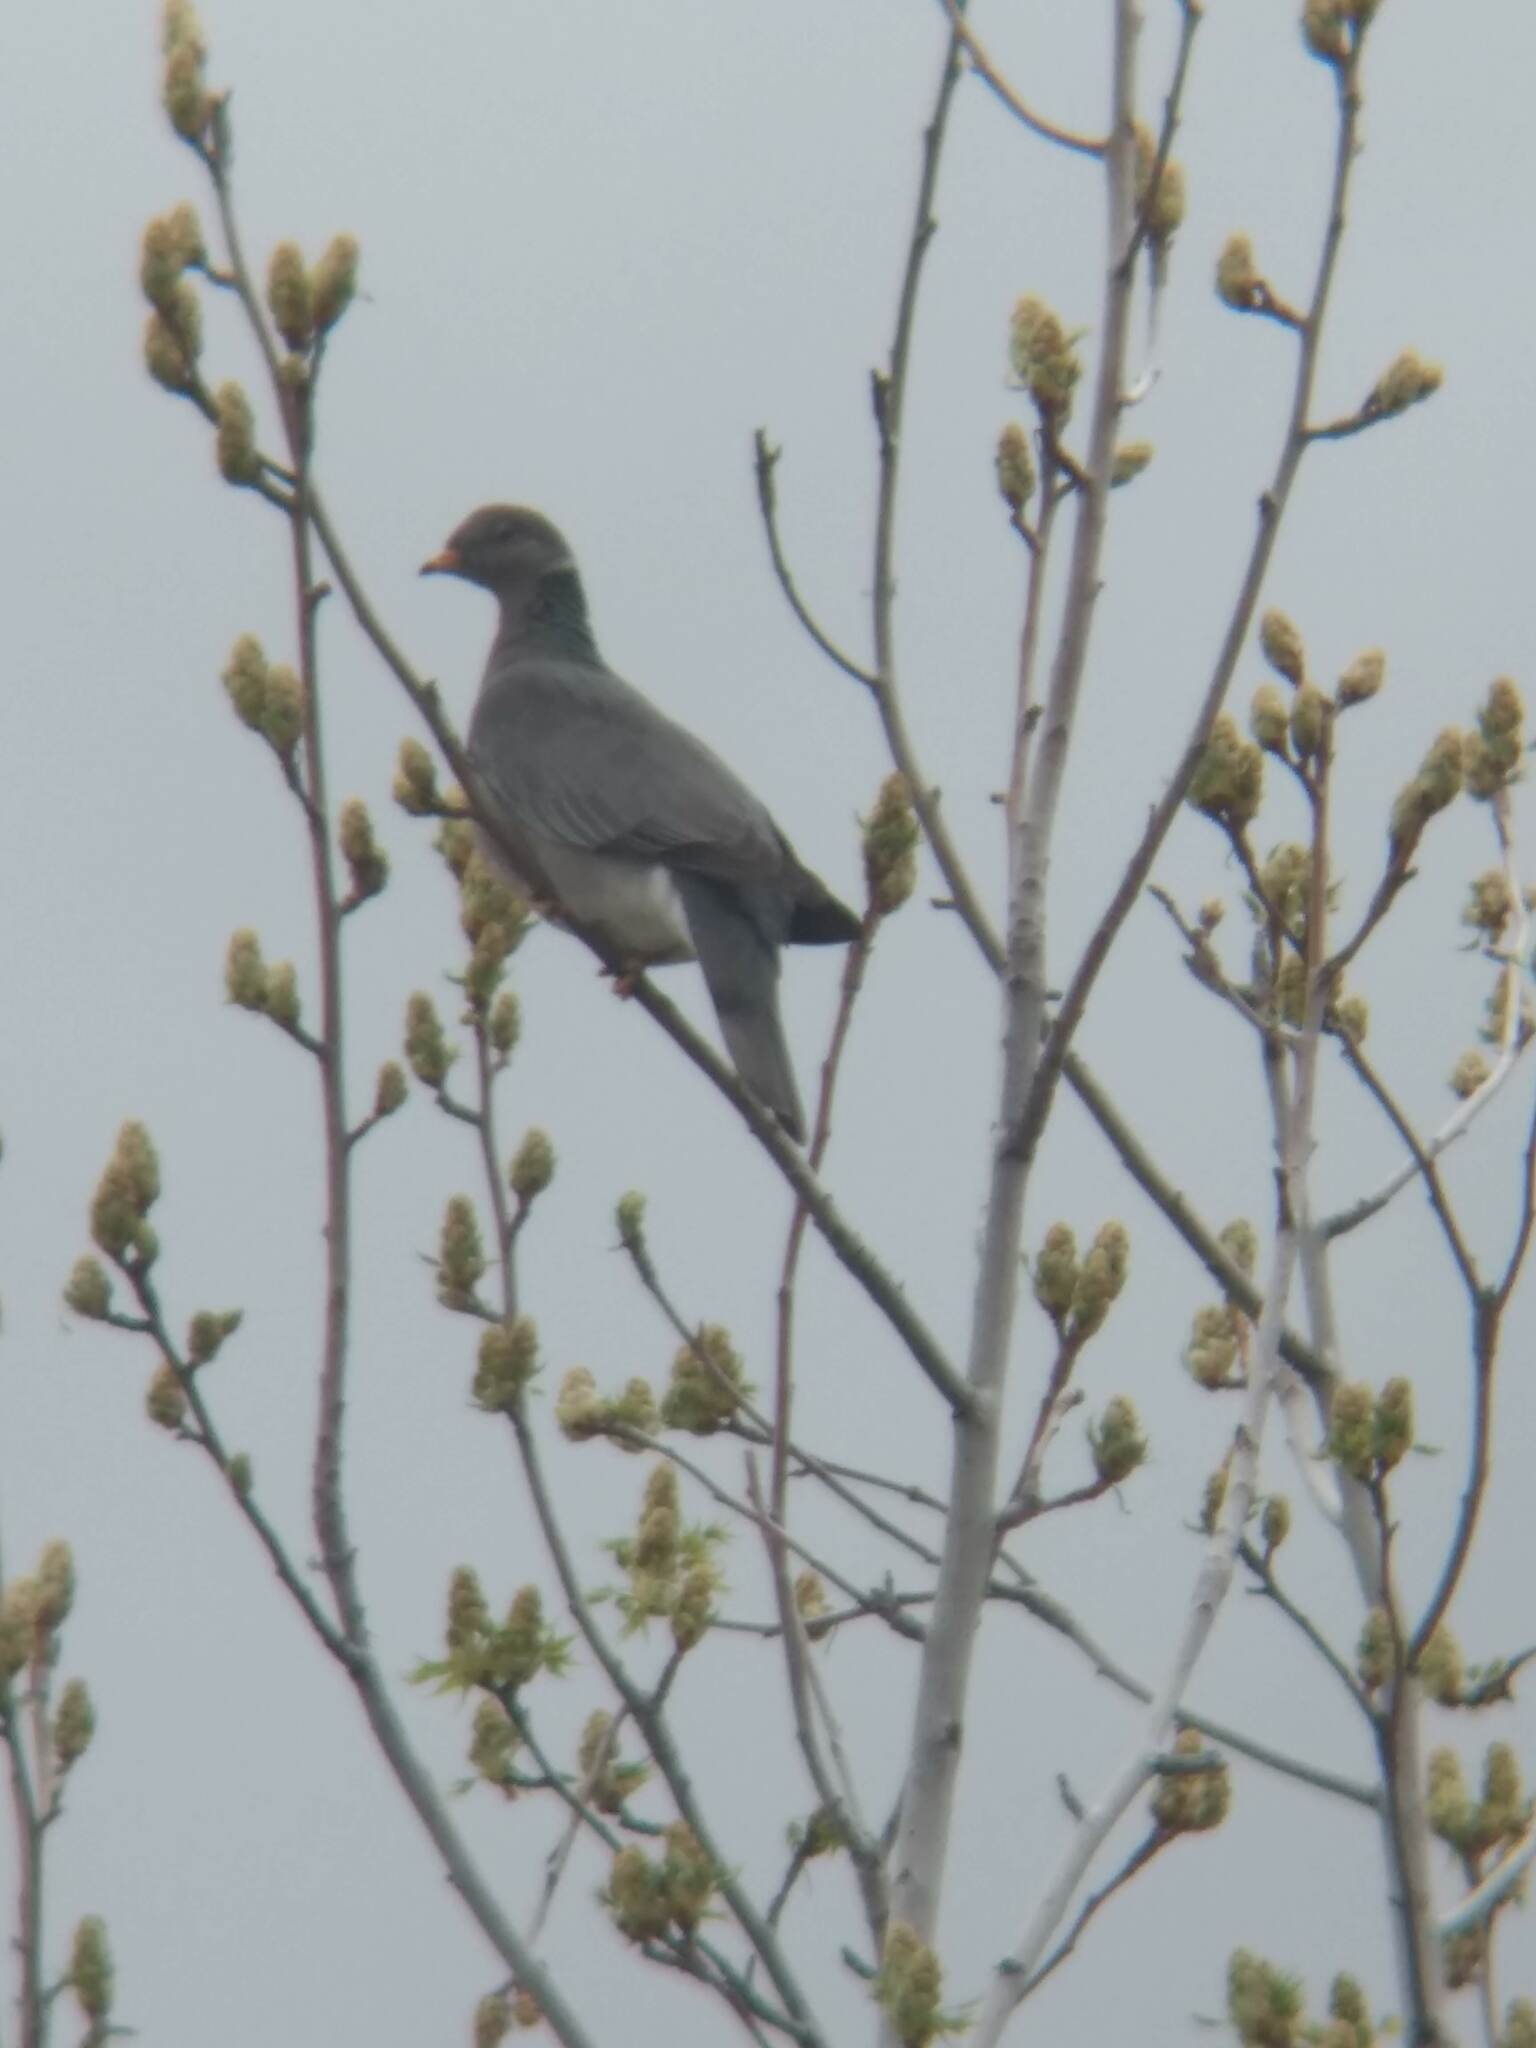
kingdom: Animalia
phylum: Chordata
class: Aves
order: Columbiformes
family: Columbidae
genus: Patagioenas
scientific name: Patagioenas fasciata
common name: Band-tailed pigeon
